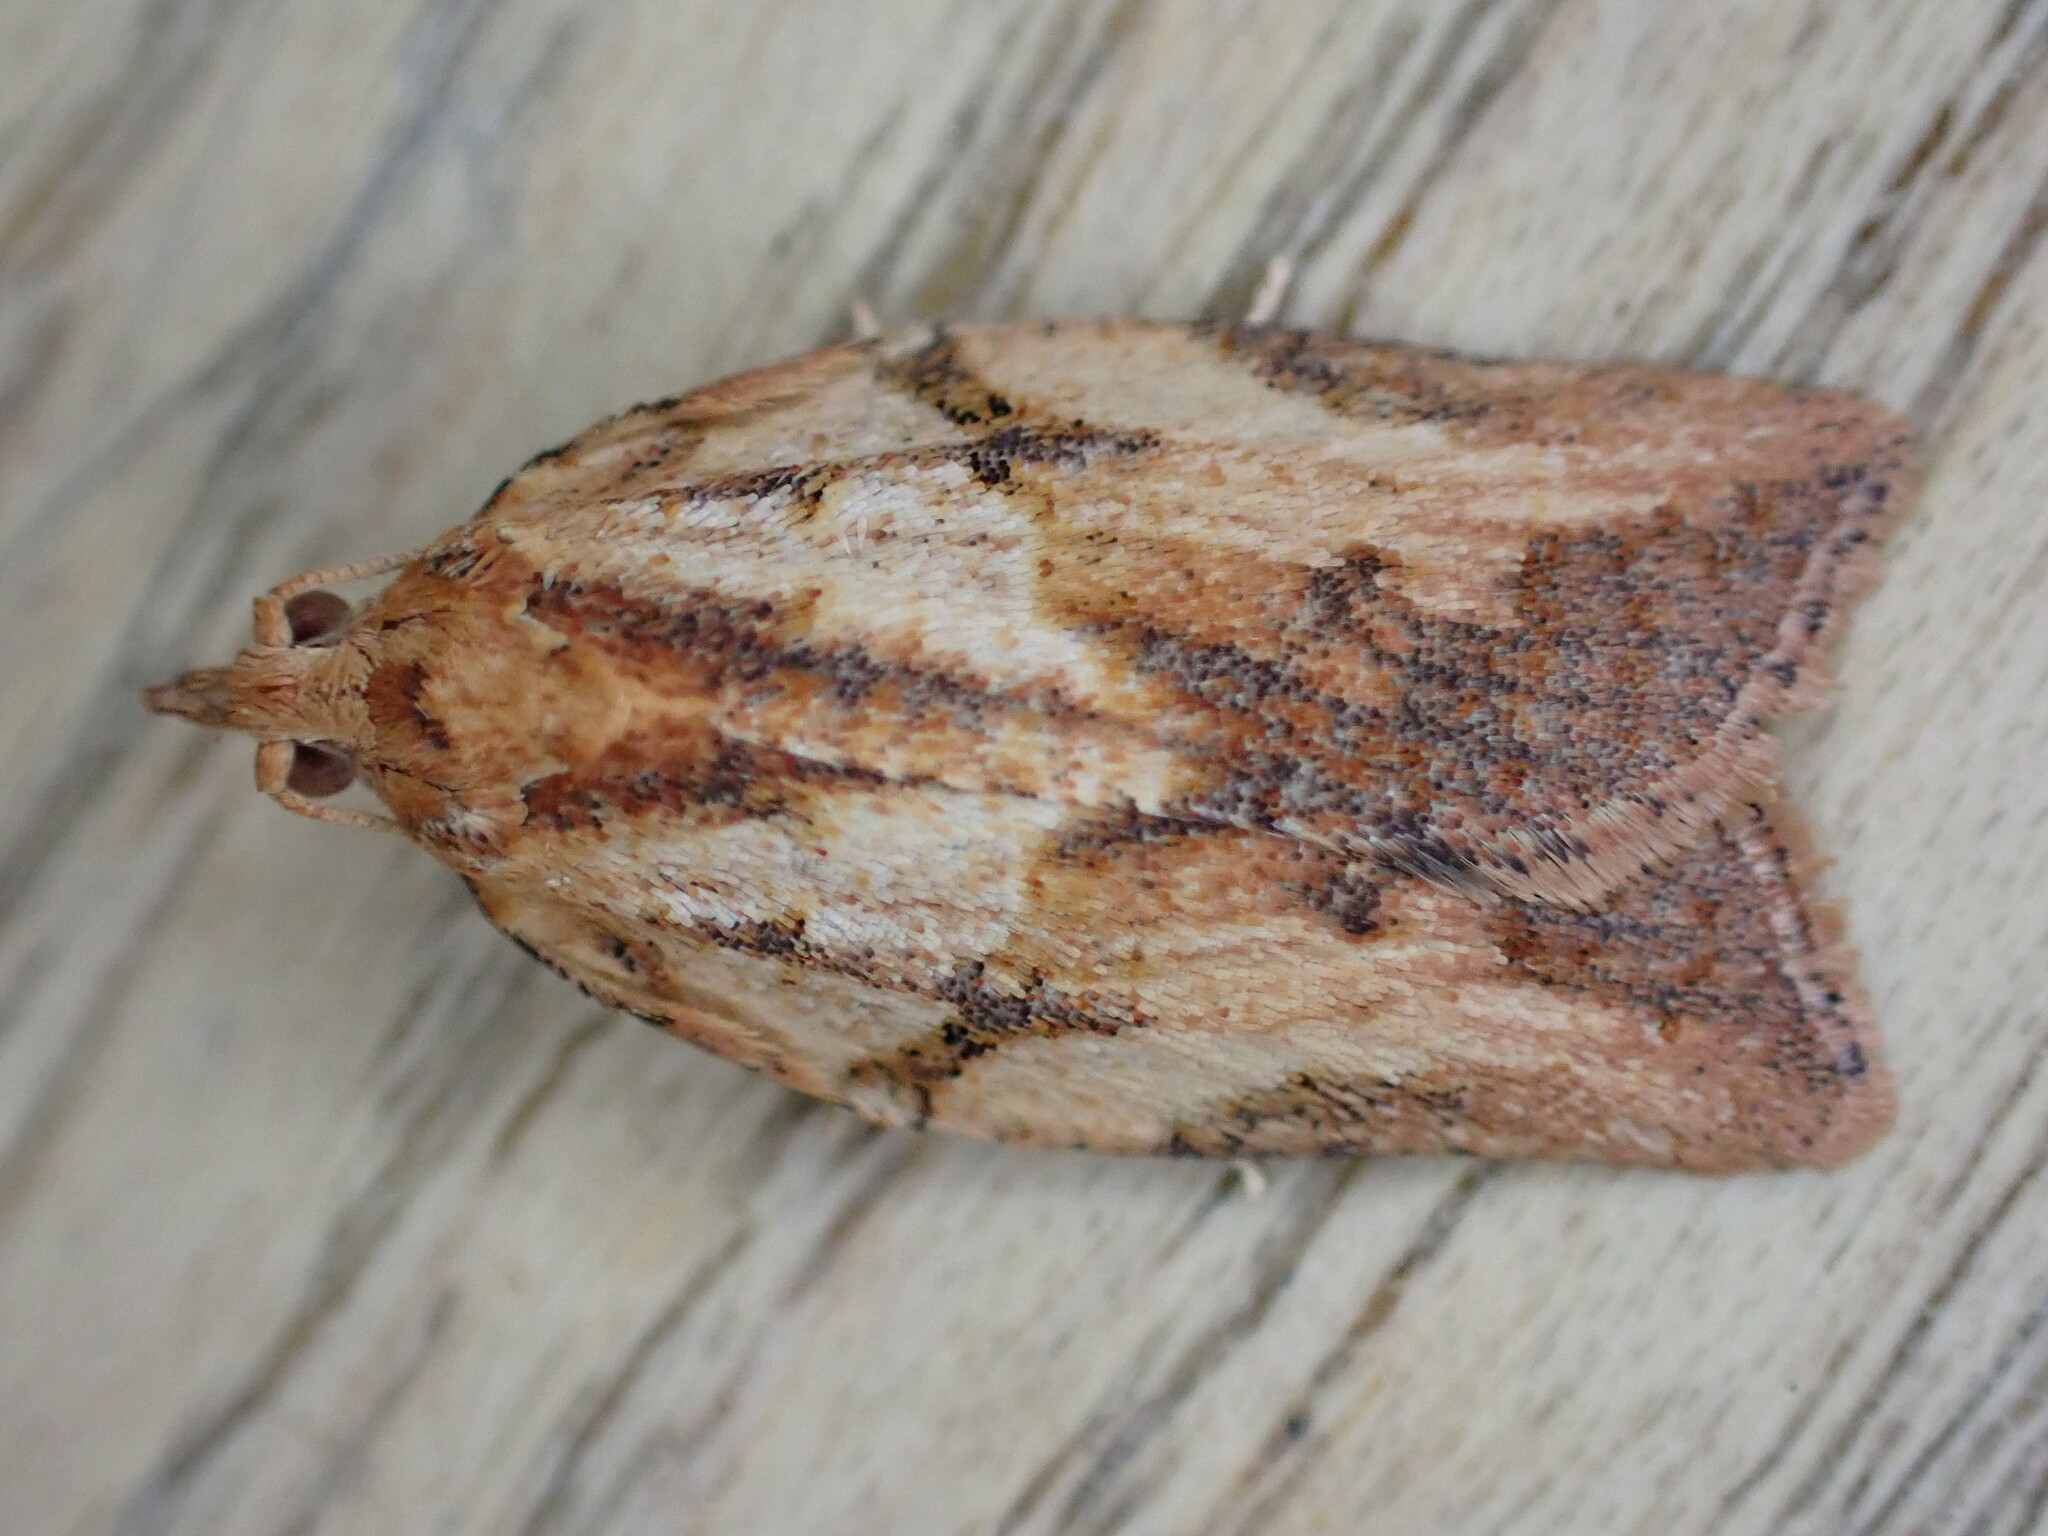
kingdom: Animalia
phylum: Arthropoda
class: Insecta
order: Lepidoptera
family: Tortricidae
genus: Epiphyas
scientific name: Epiphyas postvittana
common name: Light brown apple moth
